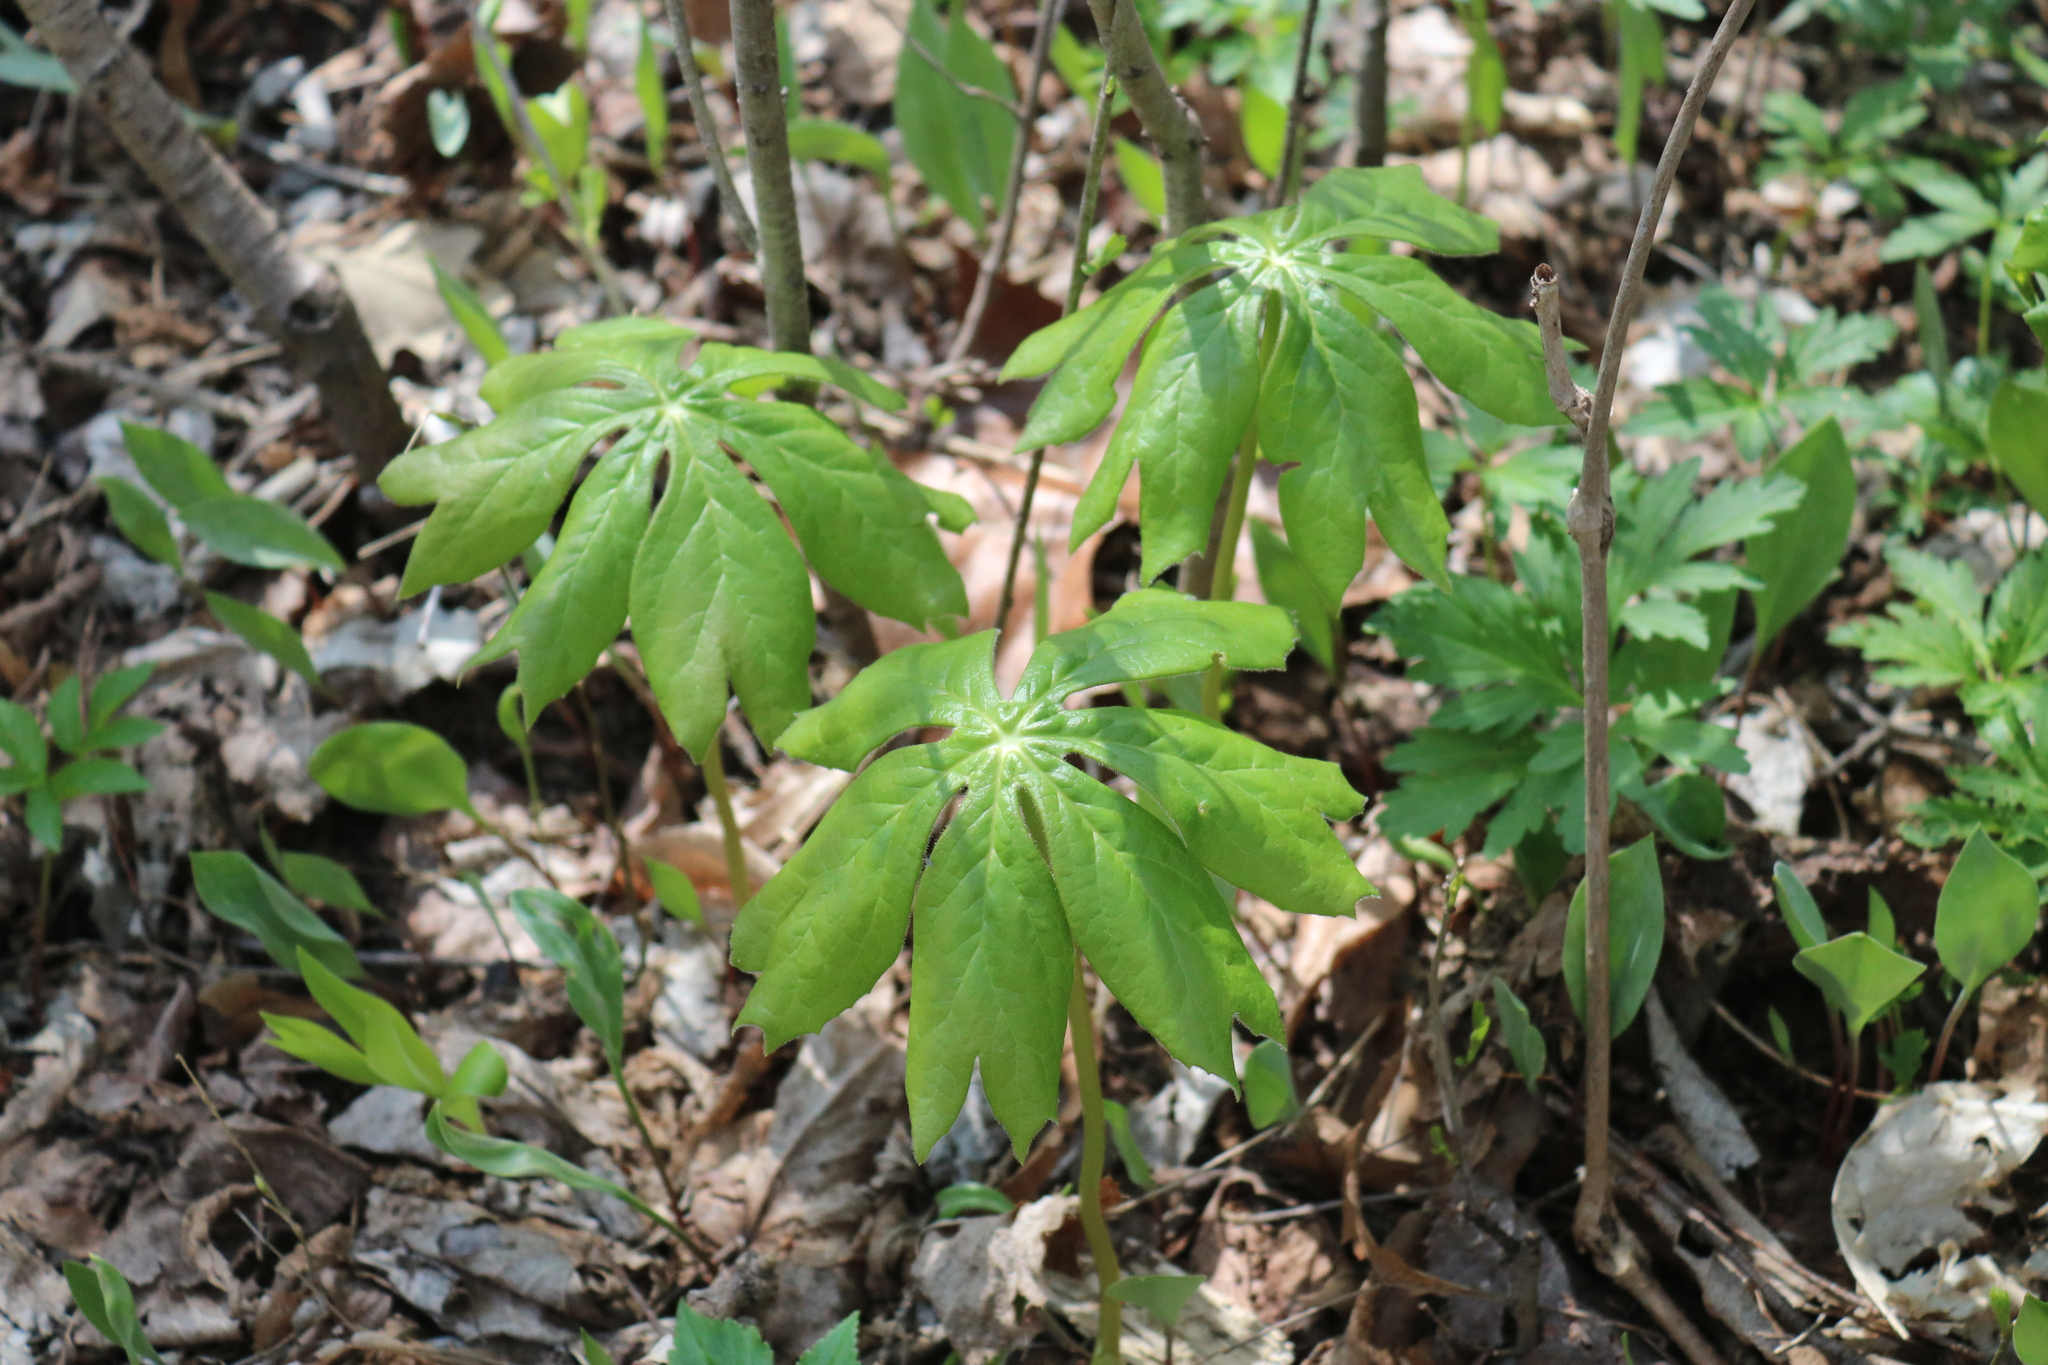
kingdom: Plantae
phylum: Tracheophyta
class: Magnoliopsida
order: Ranunculales
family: Berberidaceae
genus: Podophyllum
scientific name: Podophyllum peltatum
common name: Wild mandrake
